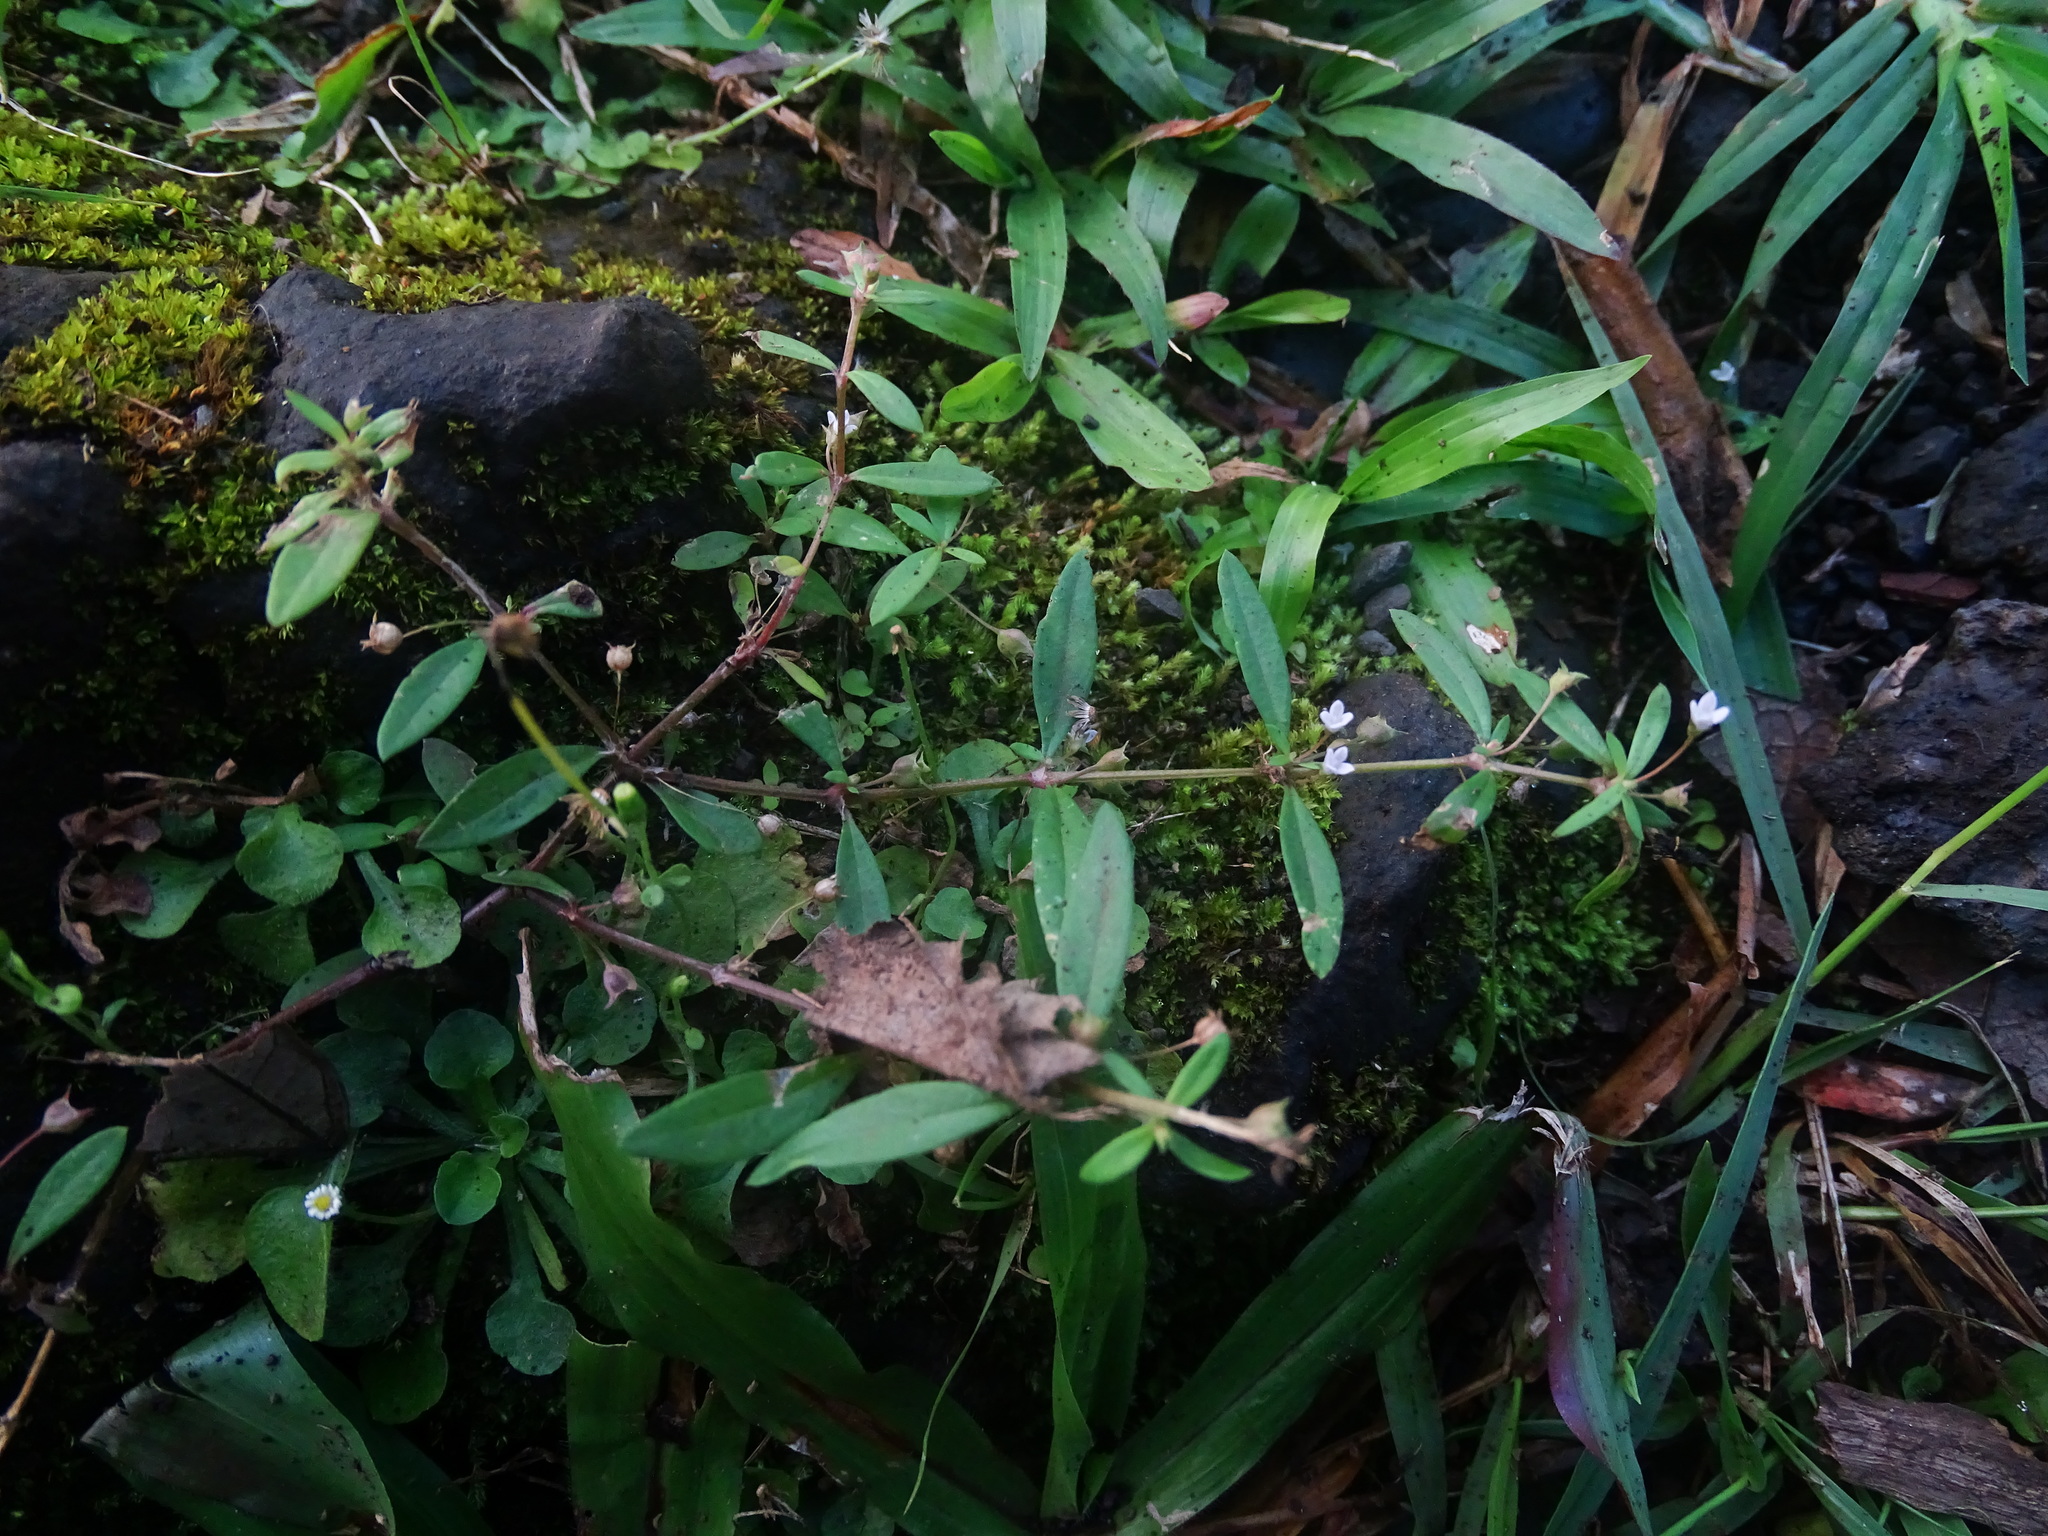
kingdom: Plantae
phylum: Tracheophyta
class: Magnoliopsida
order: Gentianales
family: Rubiaceae
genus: Oldenlandia
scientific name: Oldenlandia corymbosa
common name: Flat-top mille graines
